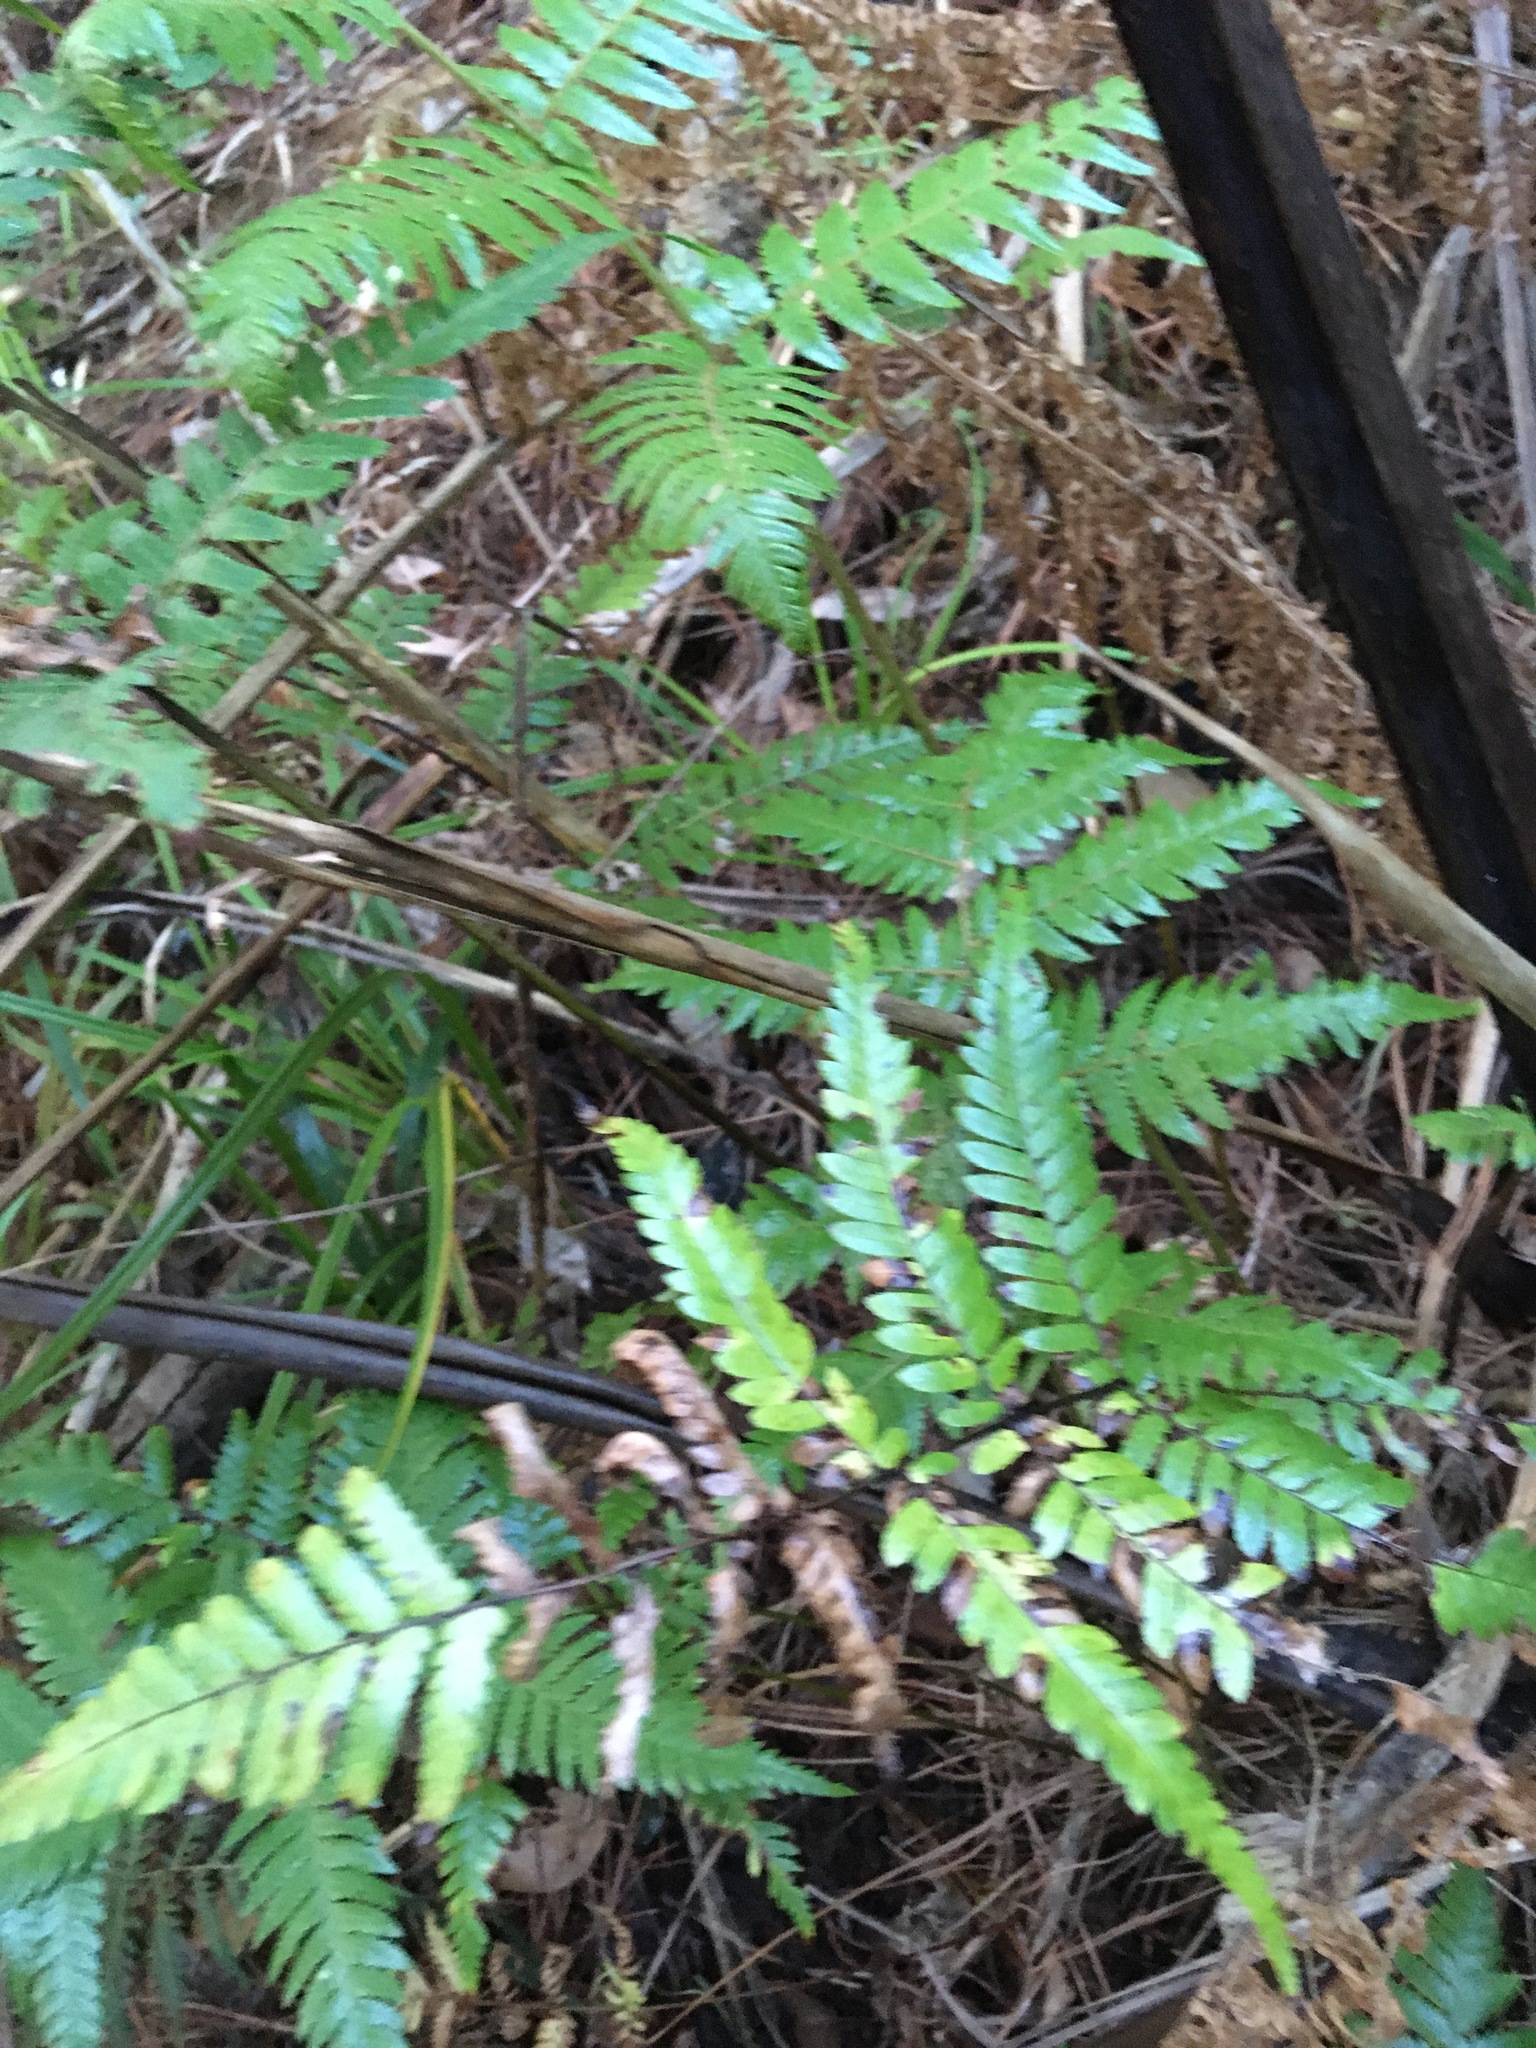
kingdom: Plantae
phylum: Tracheophyta
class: Polypodiopsida
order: Cyatheales
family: Cyatheaceae
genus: Sphaeropteris
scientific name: Sphaeropteris medullaris
